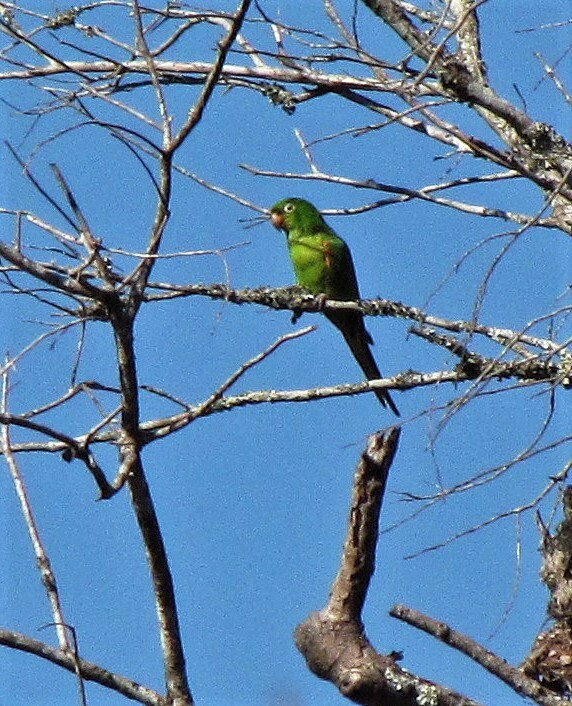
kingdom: Animalia
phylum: Chordata
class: Aves
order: Psittaciformes
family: Psittacidae
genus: Aratinga
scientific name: Aratinga leucophthalma
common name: White-eyed parakeet
